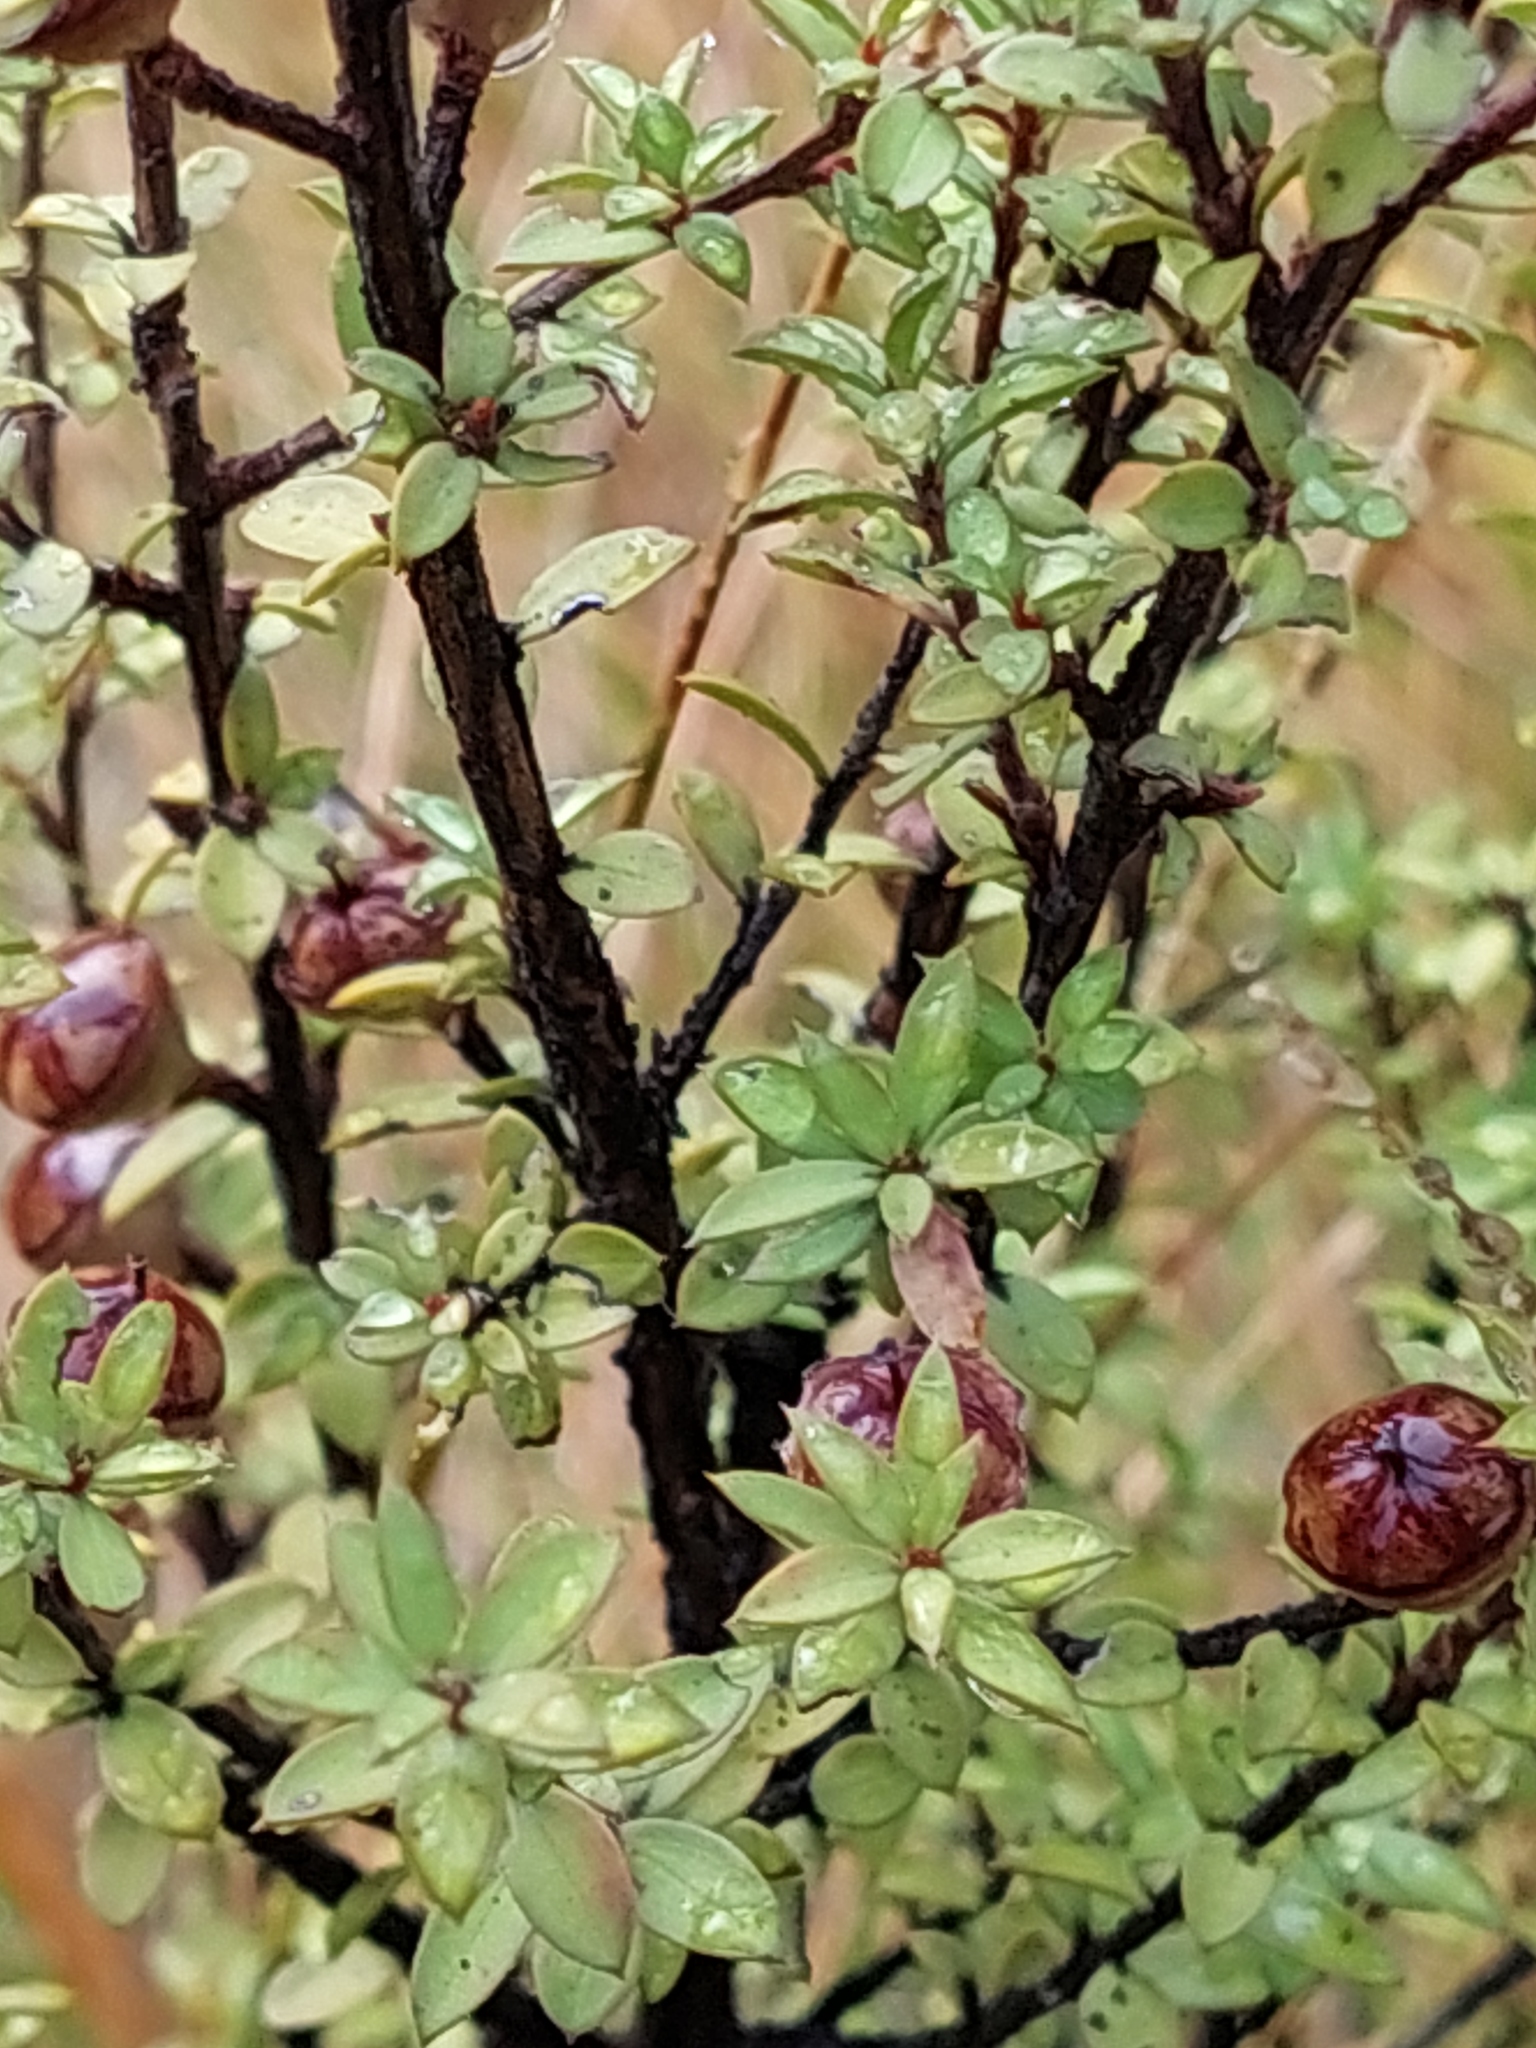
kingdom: Plantae
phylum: Tracheophyta
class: Magnoliopsida
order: Myrtales
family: Myrtaceae
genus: Leptospermum
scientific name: Leptospermum scoparium
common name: Broom tea-tree
